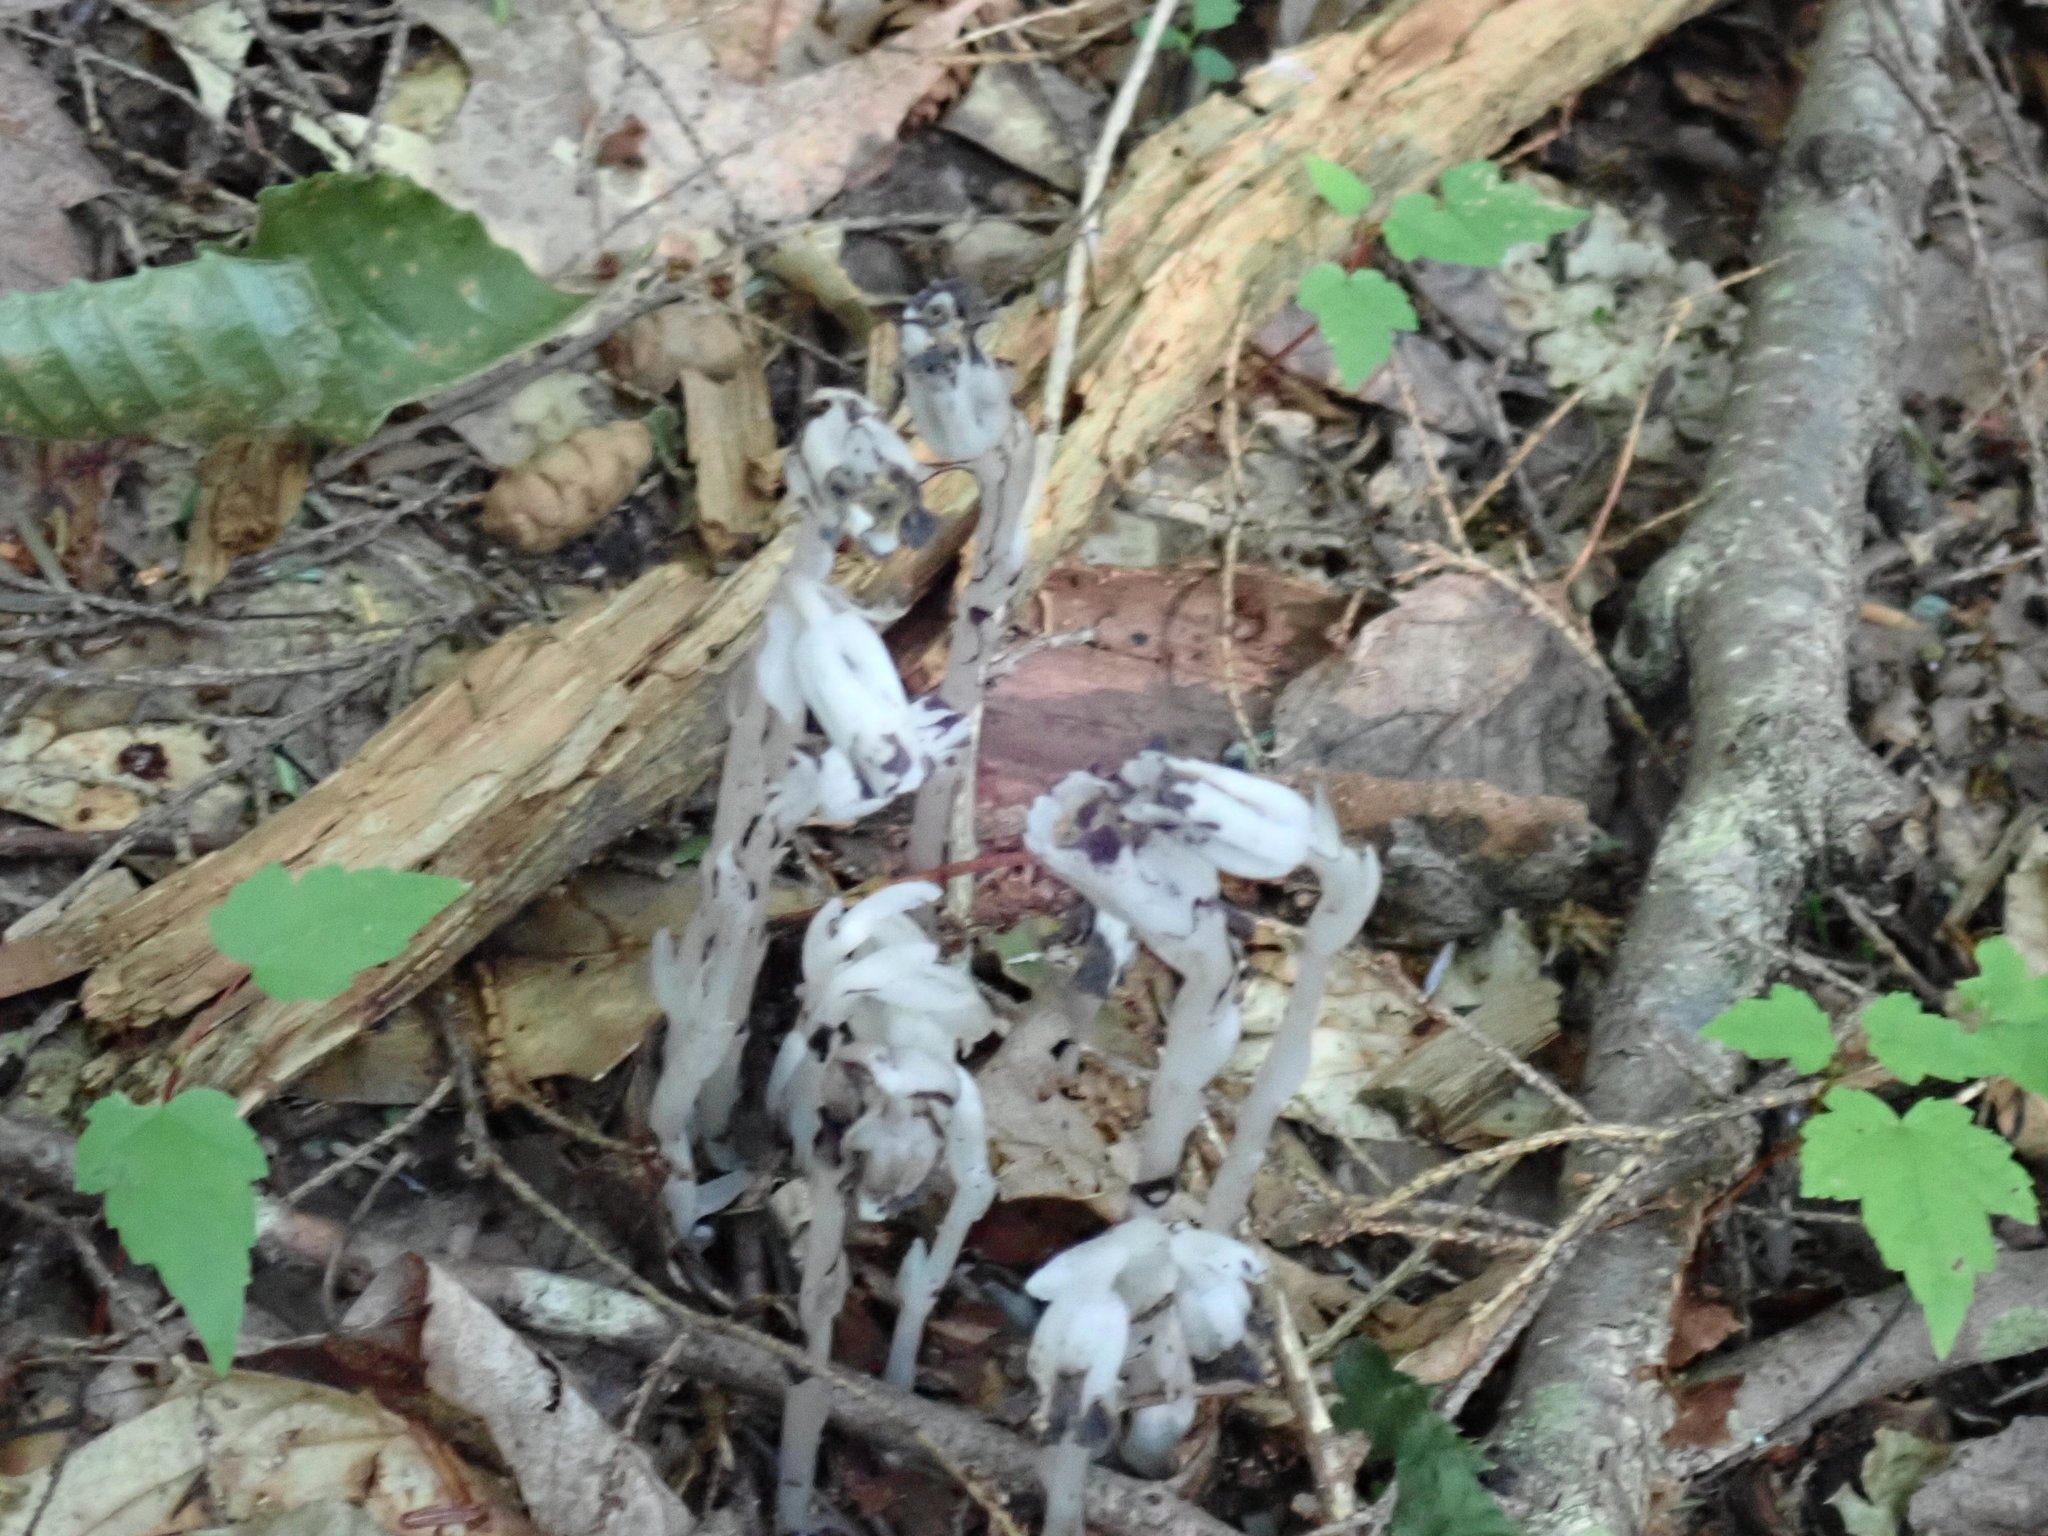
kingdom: Plantae
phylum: Tracheophyta
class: Magnoliopsida
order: Ericales
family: Ericaceae
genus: Monotropa
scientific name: Monotropa uniflora
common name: Convulsion root
